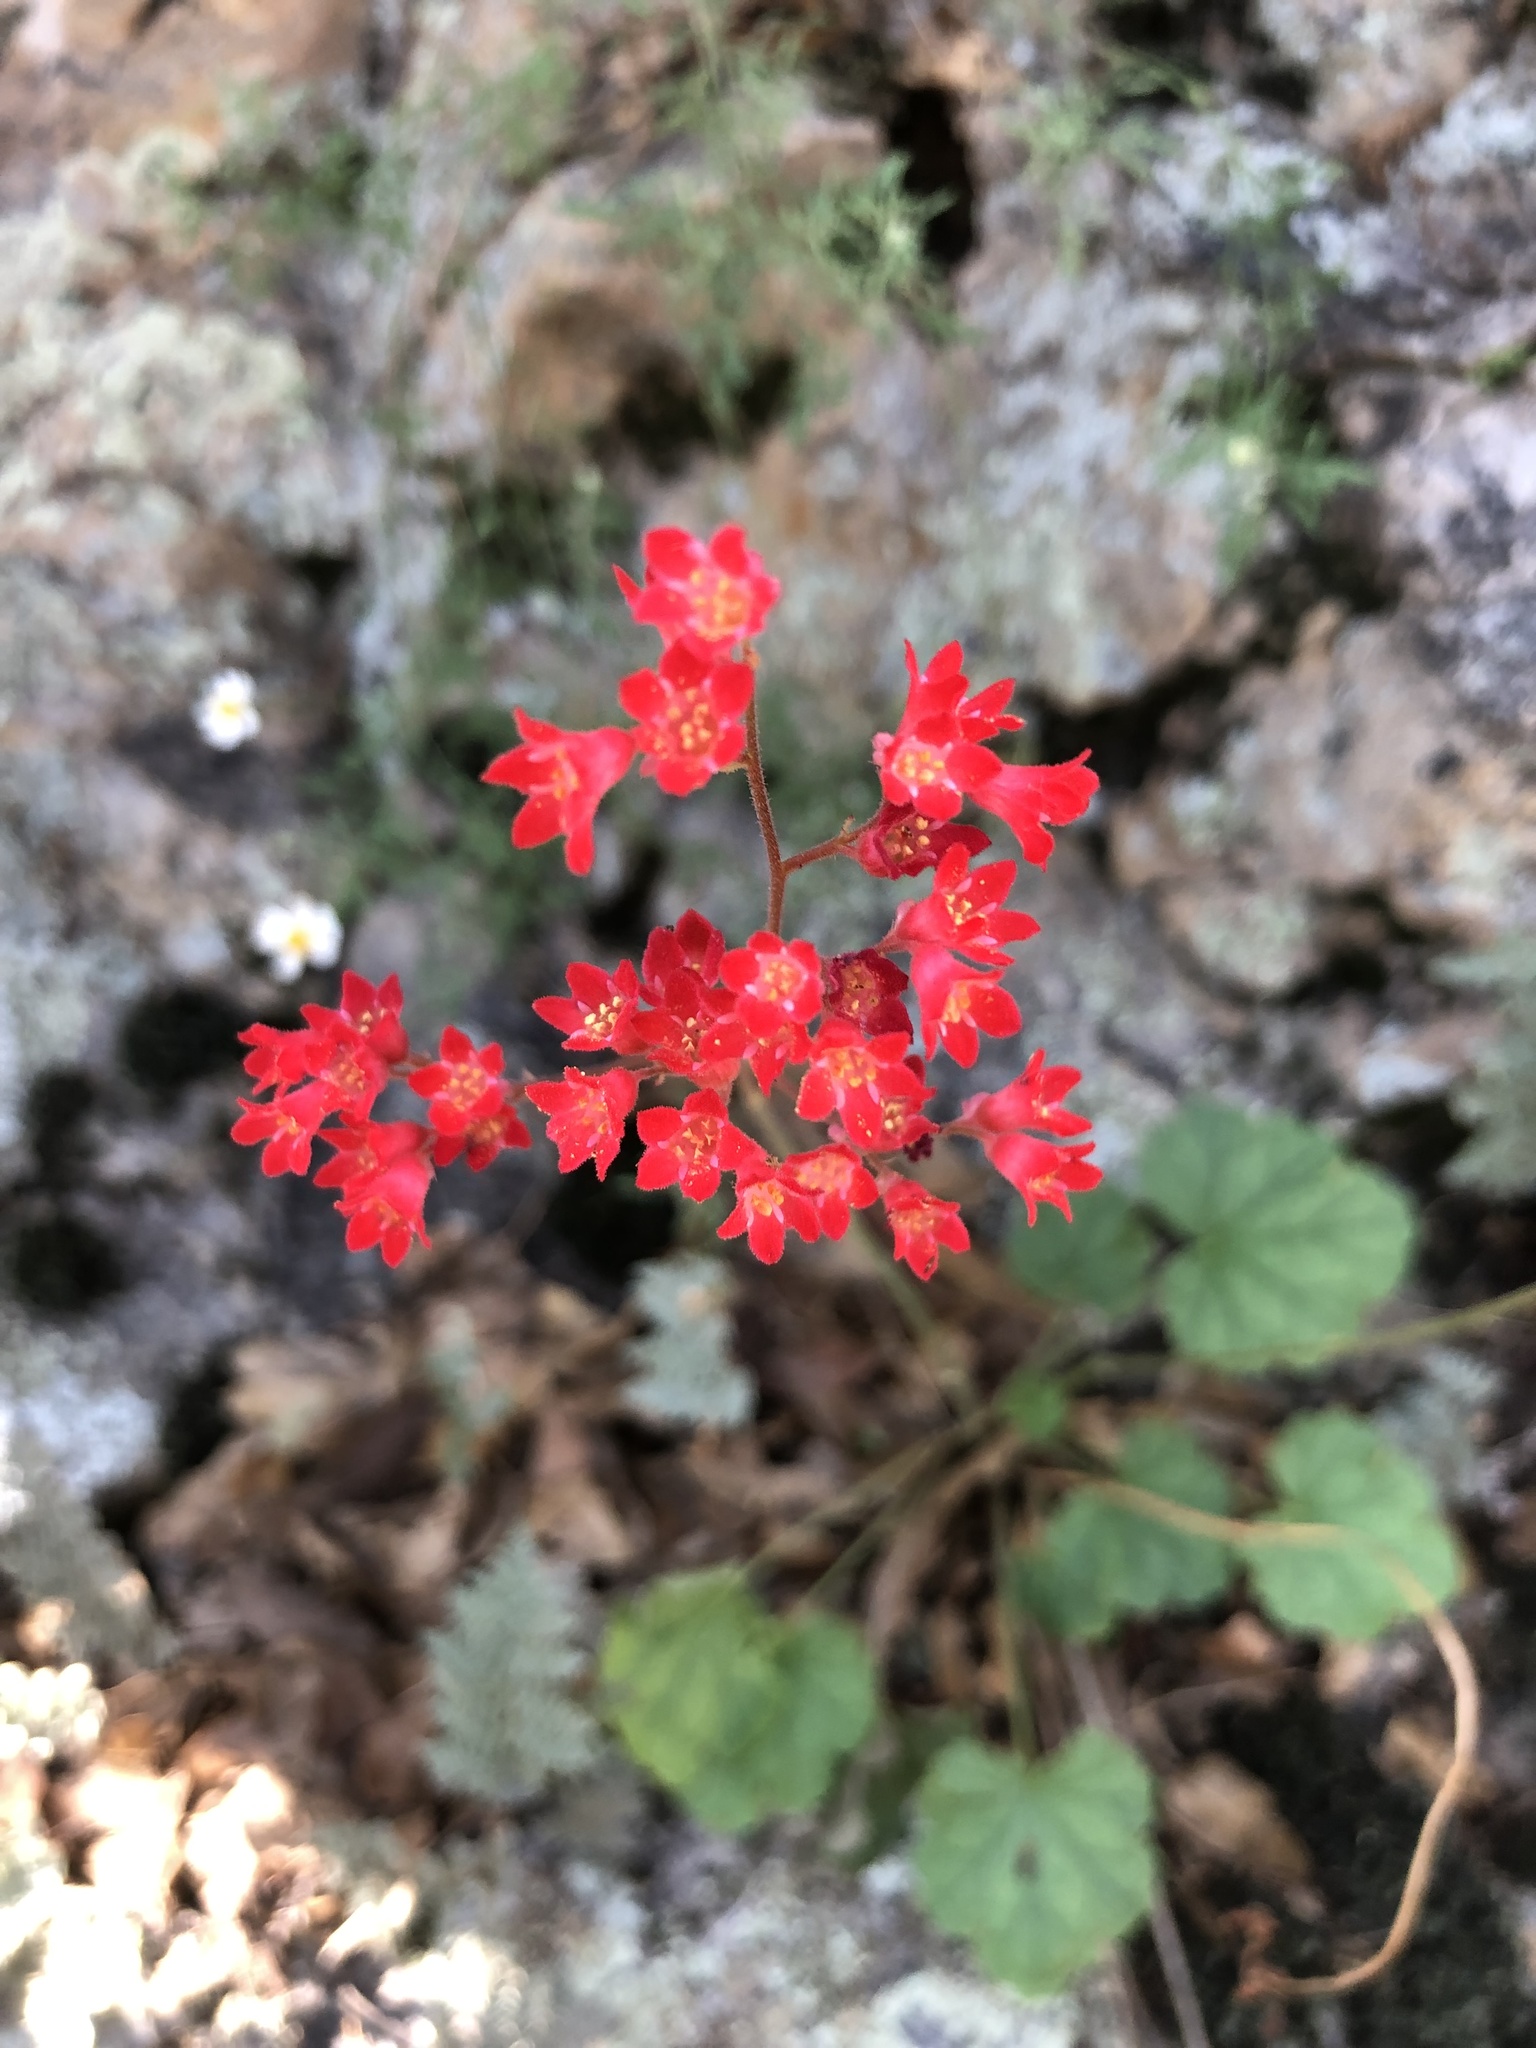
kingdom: Plantae
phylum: Tracheophyta
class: Magnoliopsida
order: Saxifragales
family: Saxifragaceae
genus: Heuchera
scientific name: Heuchera sanguinea
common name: Coralbells
